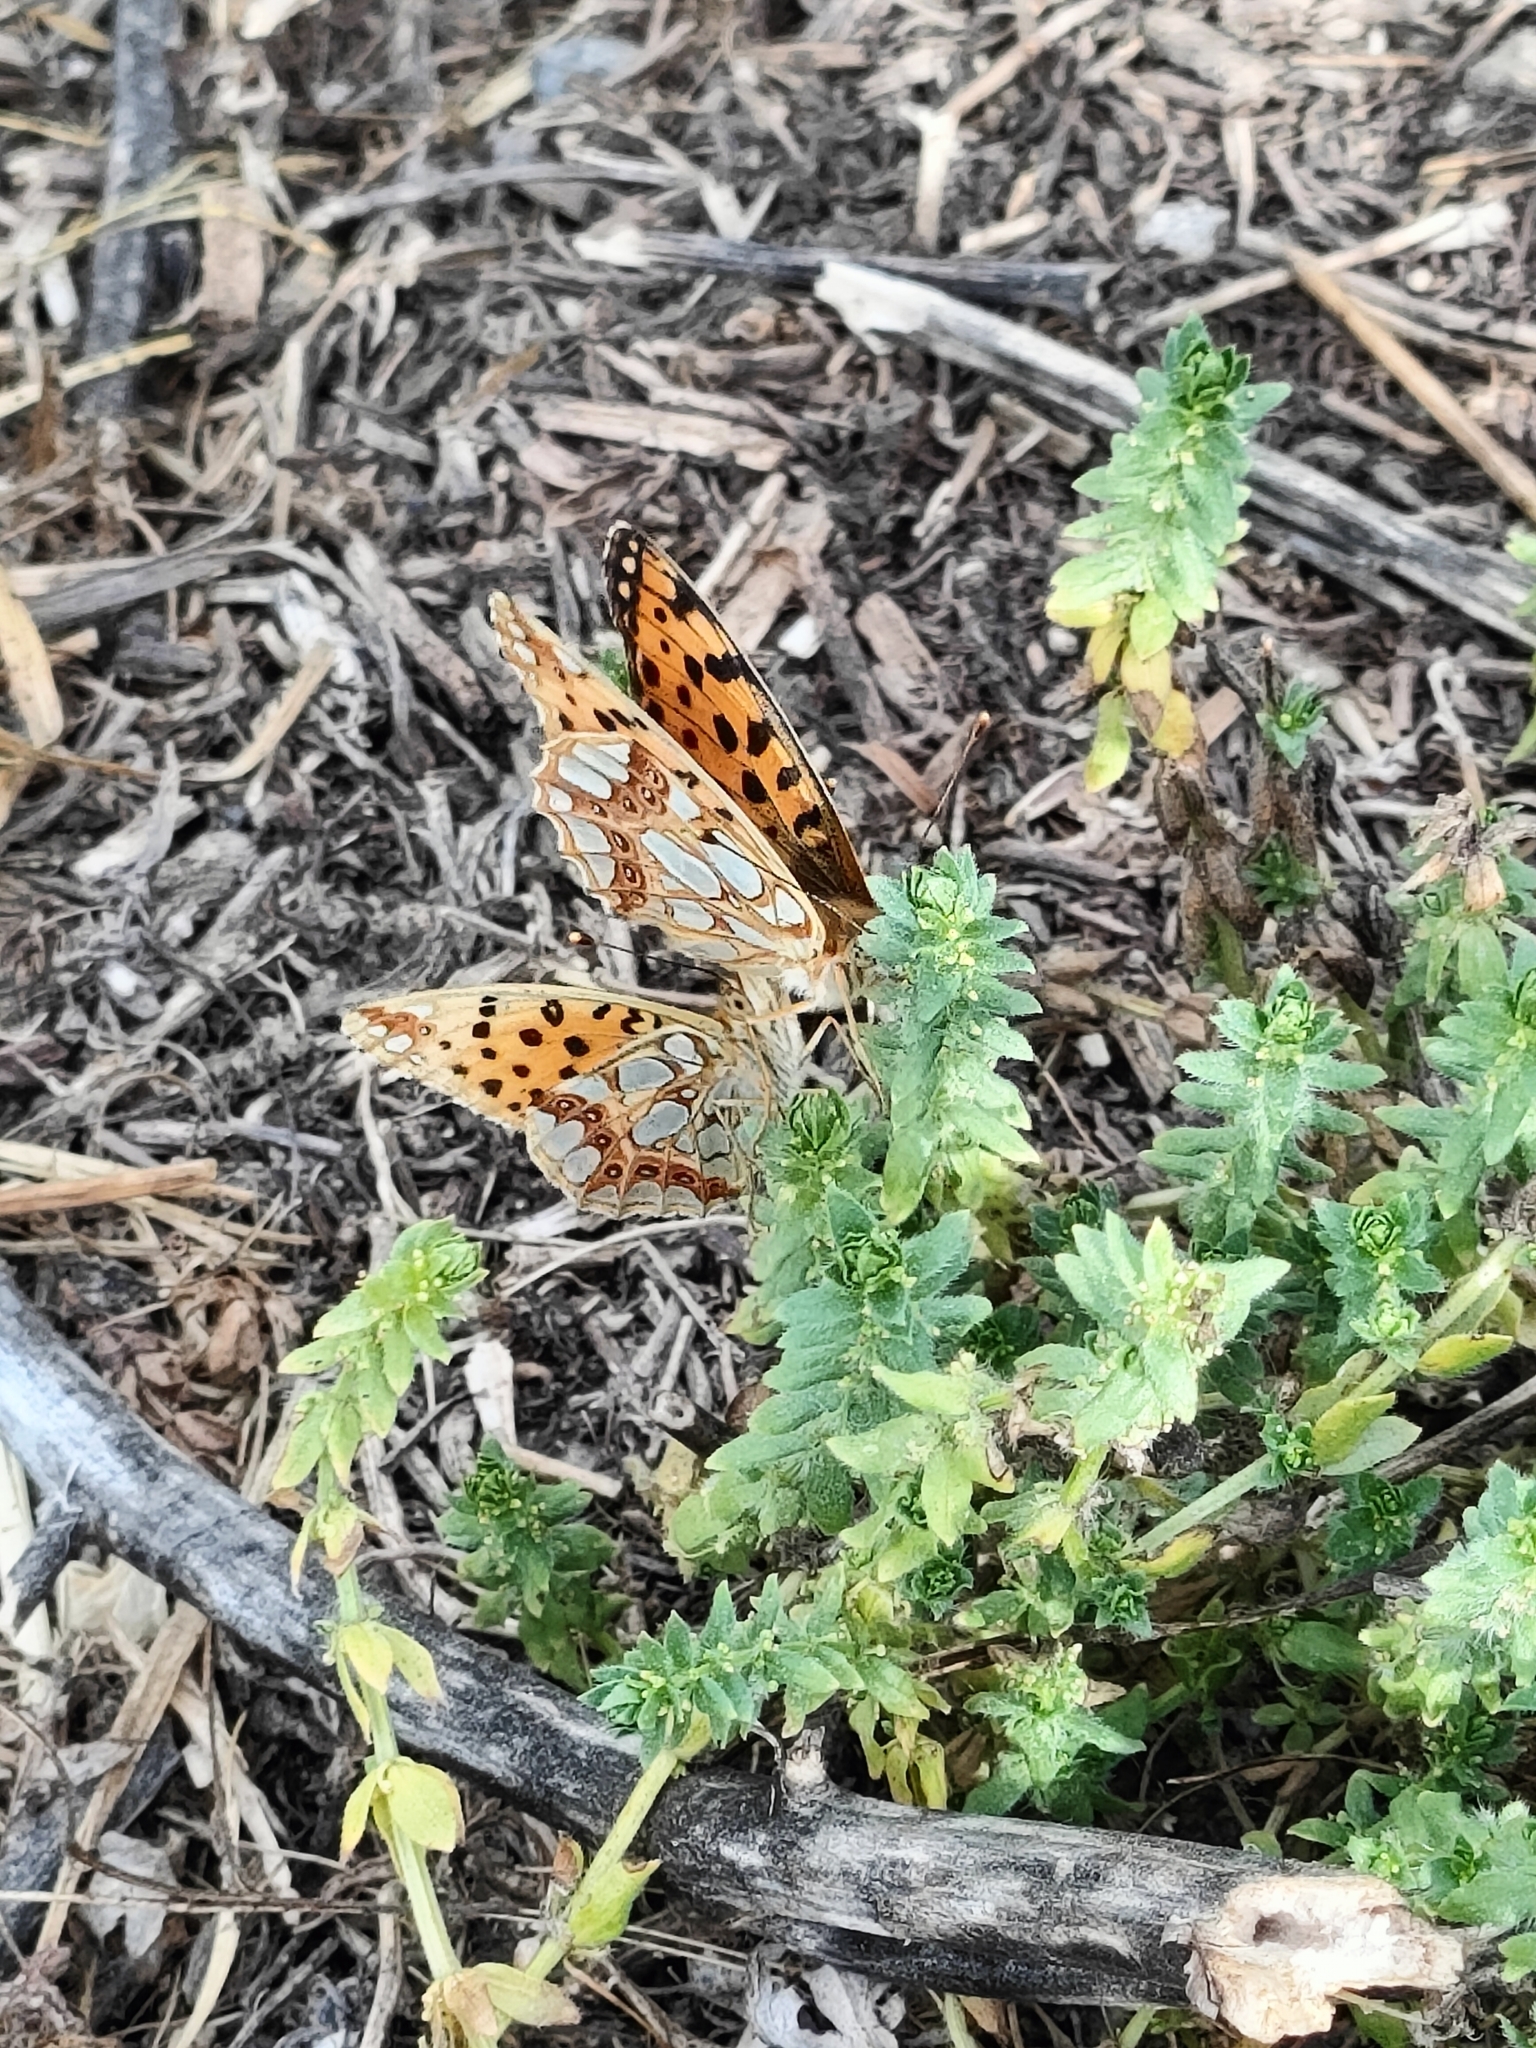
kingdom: Animalia
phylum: Arthropoda
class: Insecta
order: Lepidoptera
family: Nymphalidae
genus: Issoria
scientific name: Issoria lathonia
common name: Queen of spain fritillary
